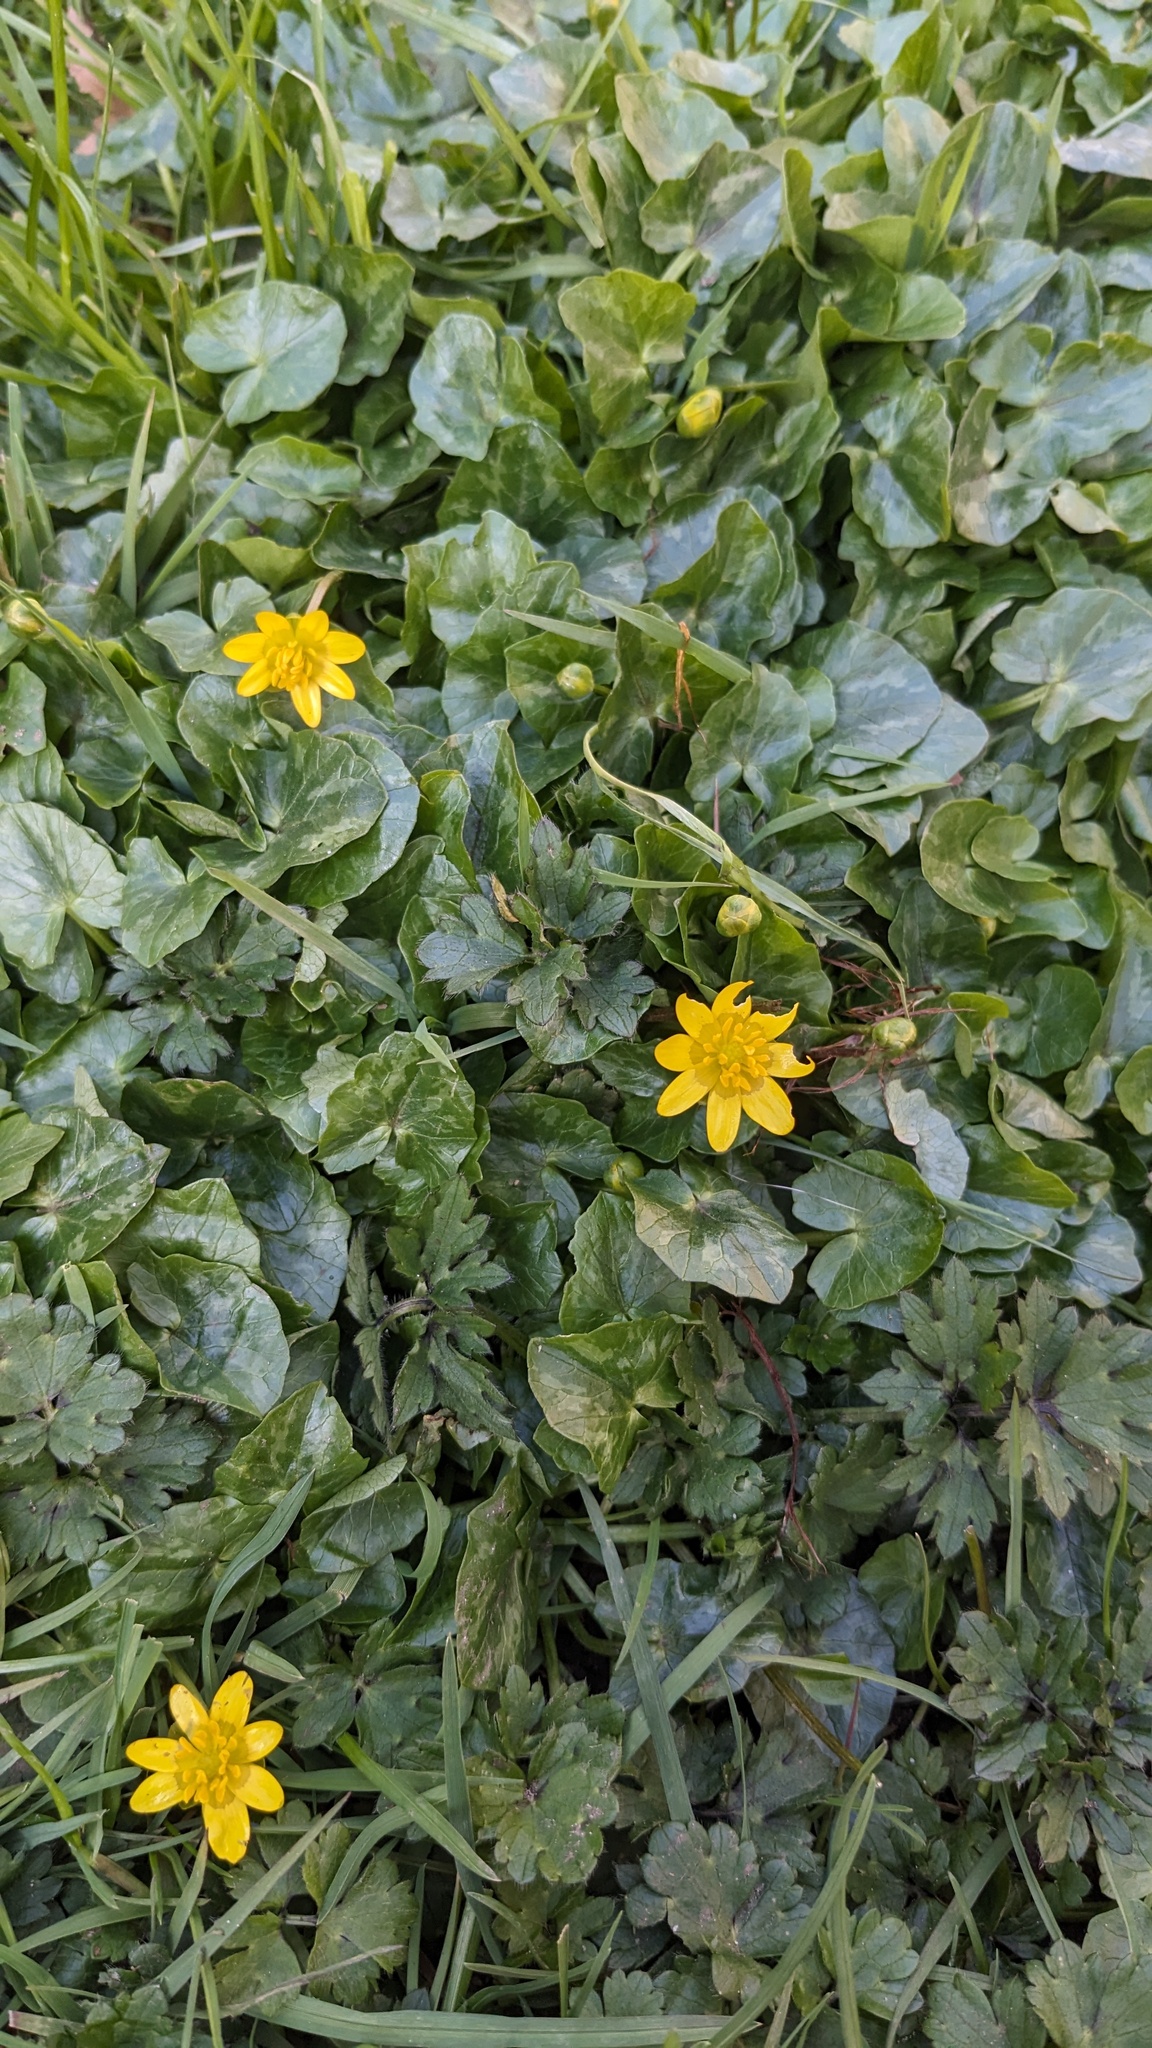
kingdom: Plantae
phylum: Tracheophyta
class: Magnoliopsida
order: Ranunculales
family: Ranunculaceae
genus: Ficaria
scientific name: Ficaria verna
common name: Lesser celandine
